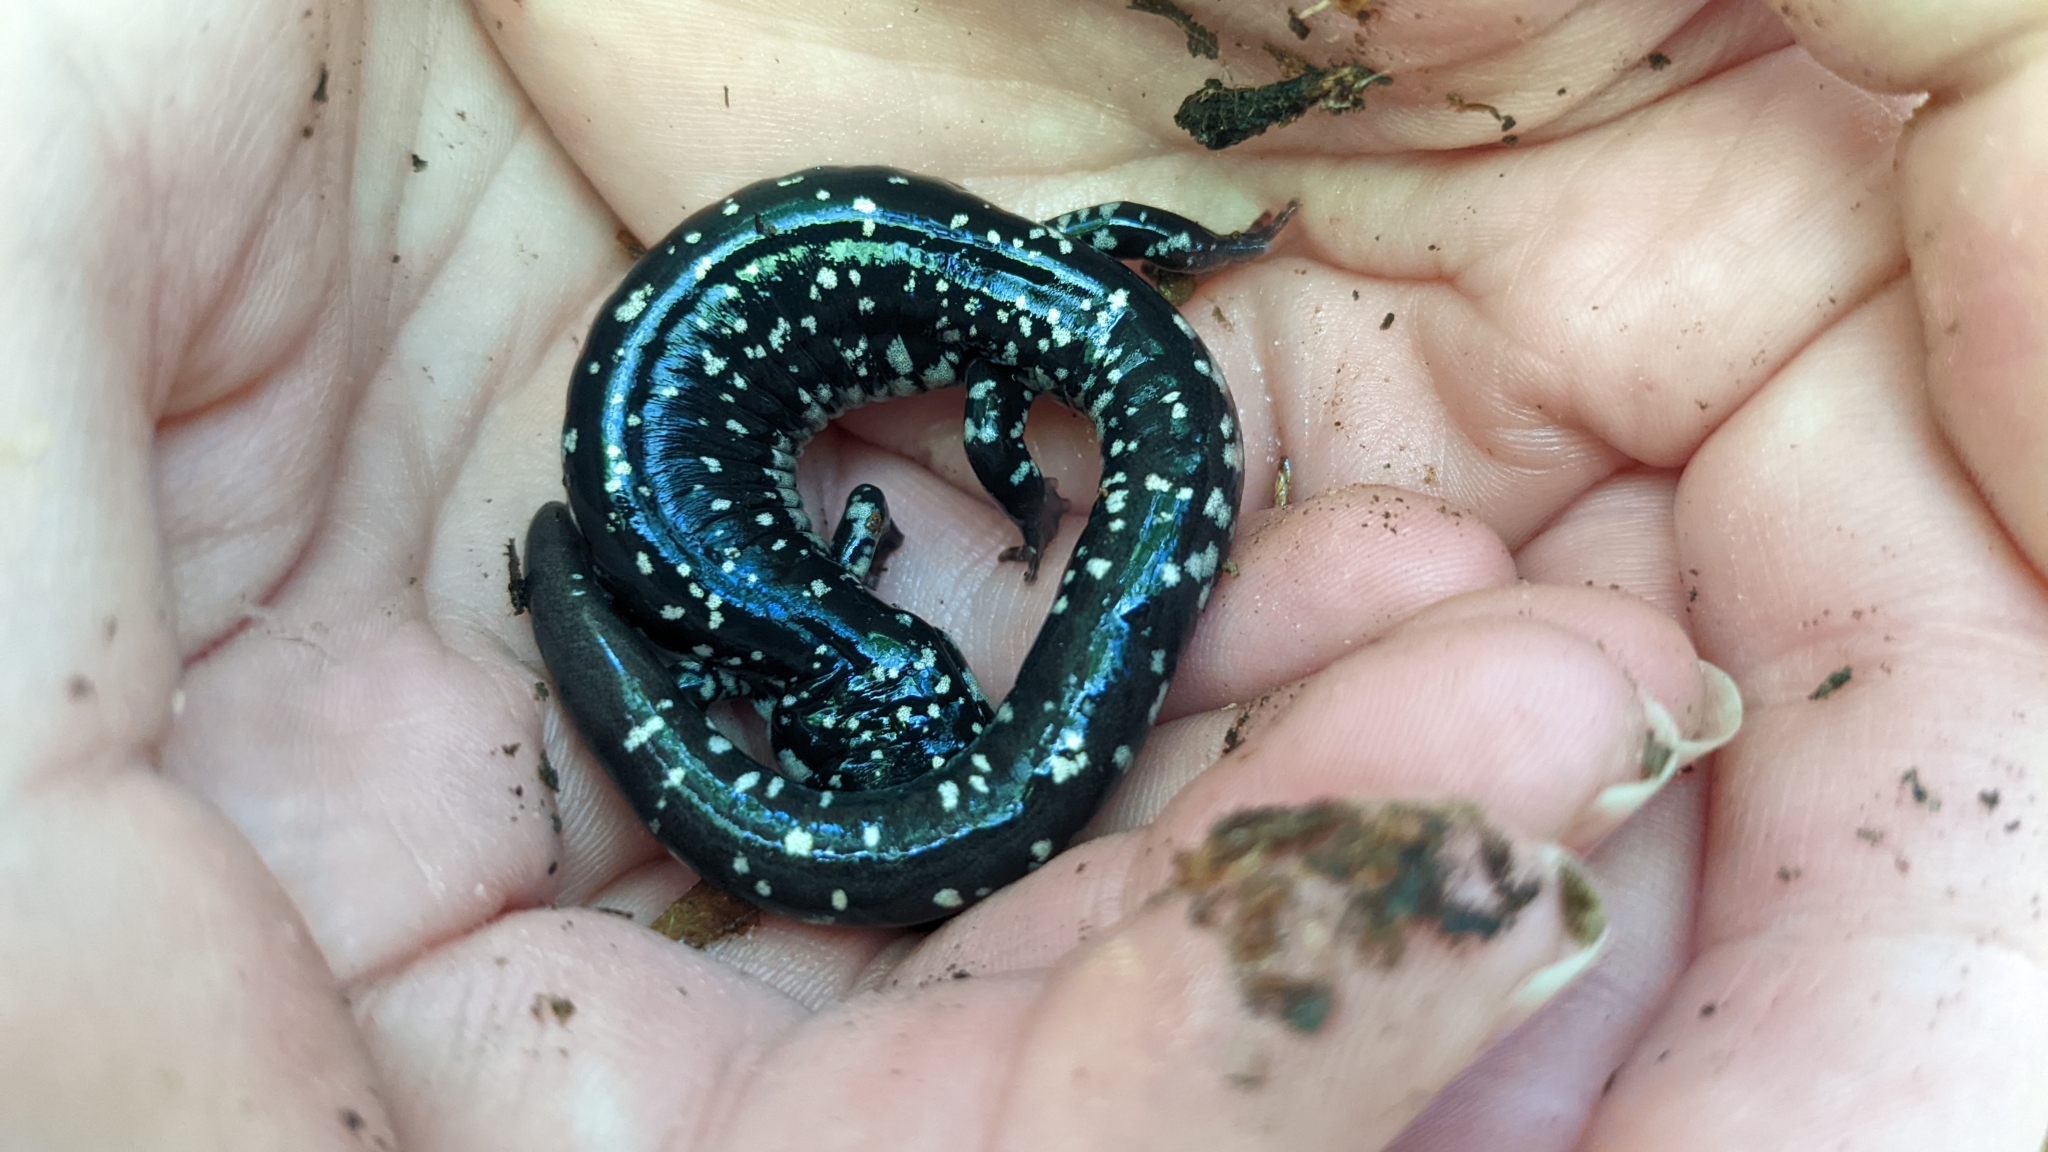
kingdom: Animalia
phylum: Chordata
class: Amphibia
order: Caudata
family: Plethodontidae
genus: Plethodon
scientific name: Plethodon albagula
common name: Western slimy salamander
